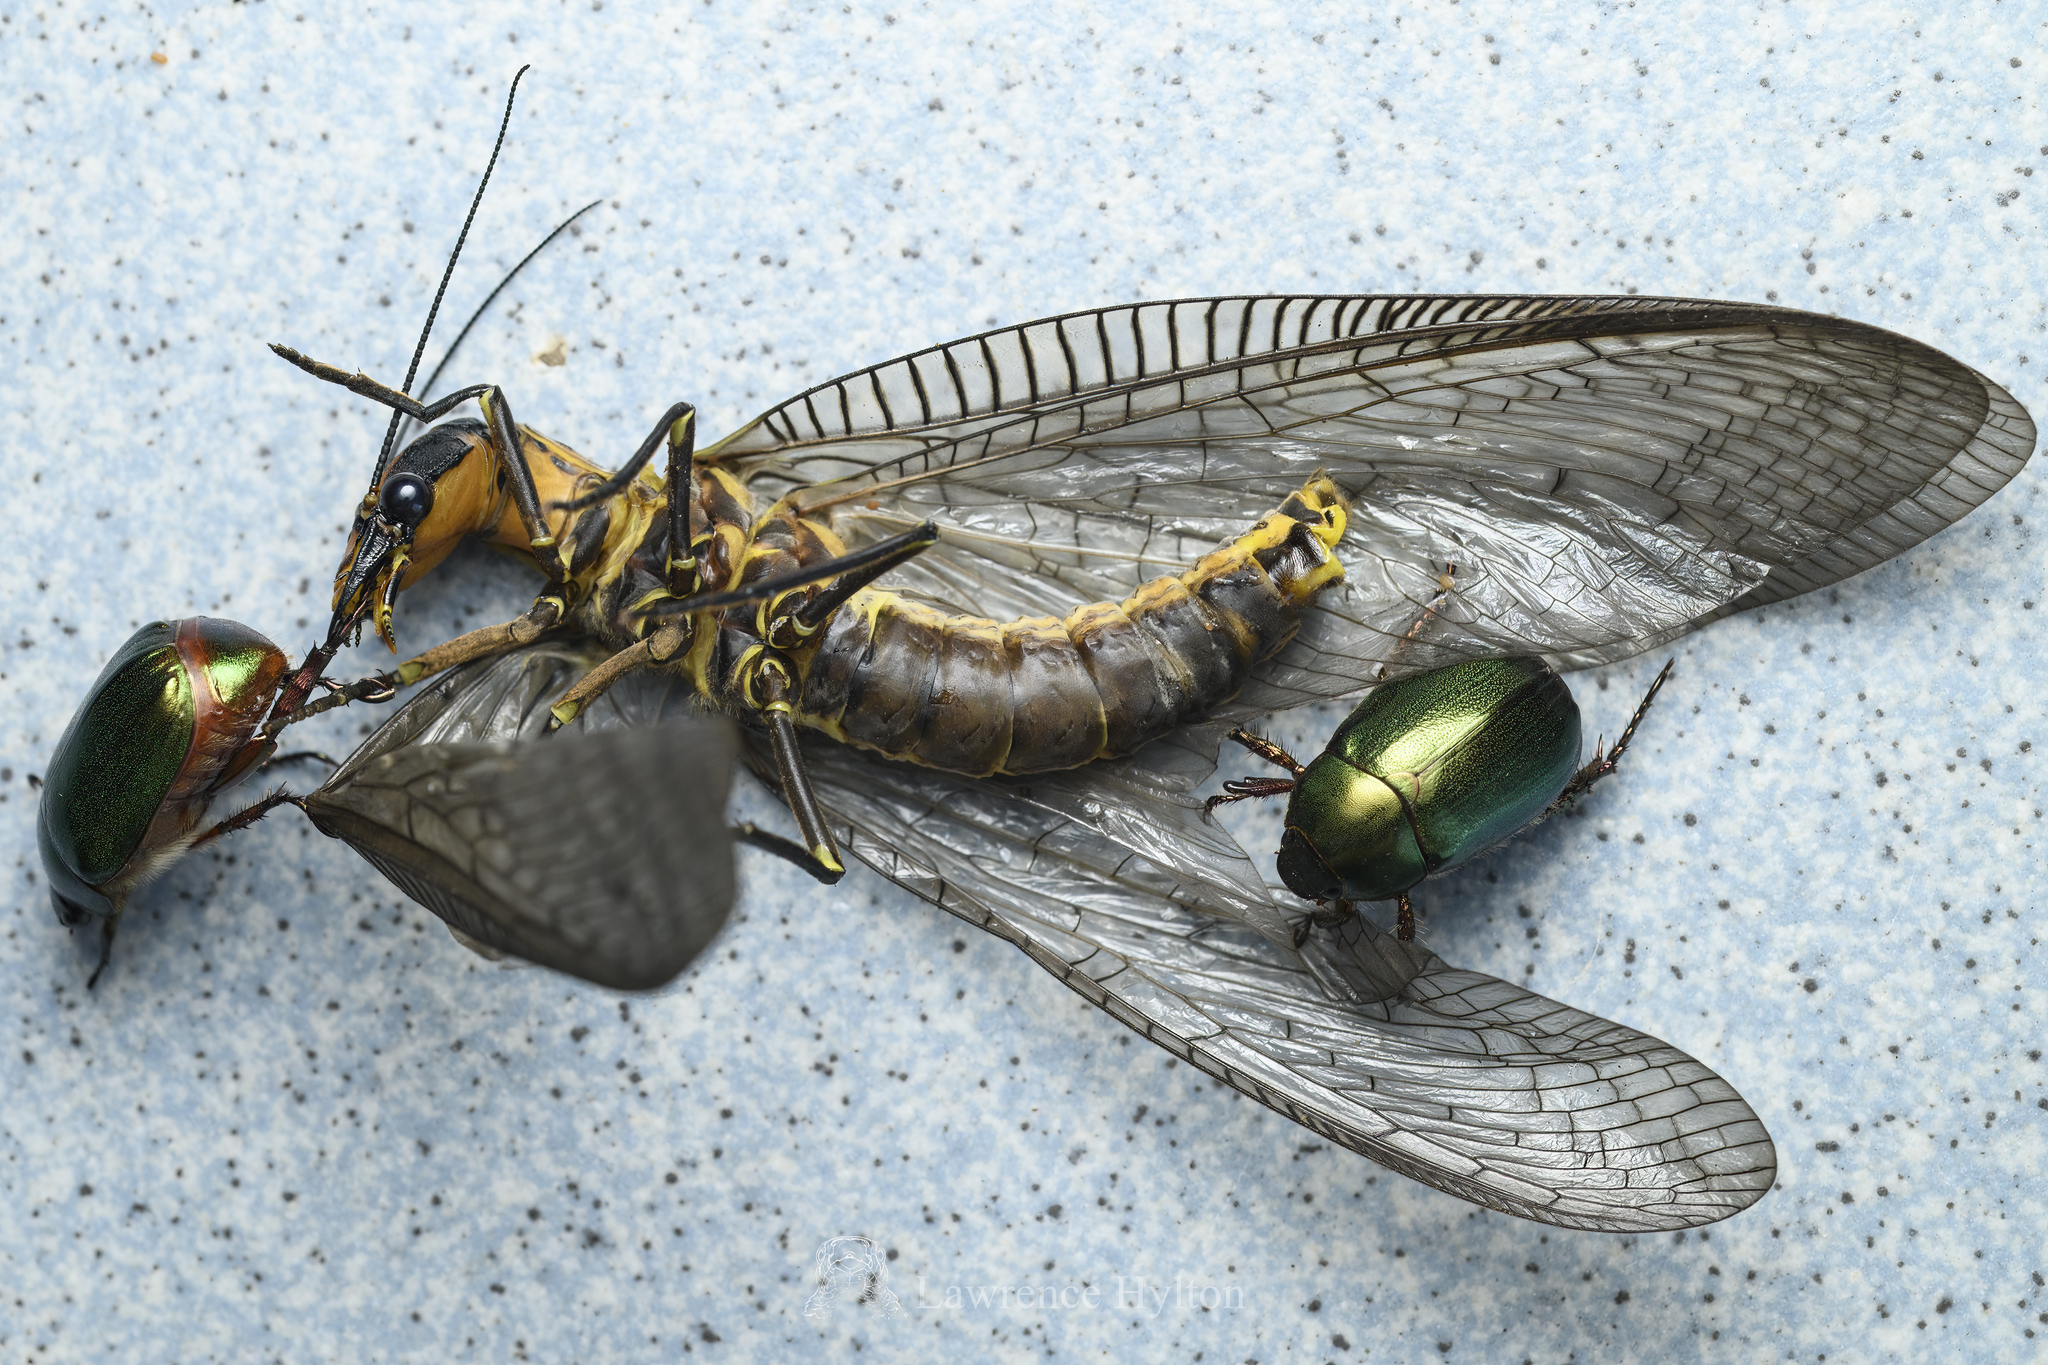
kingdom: Animalia
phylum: Arthropoda
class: Insecta
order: Megaloptera
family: Corydalidae
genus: Neoneuromus
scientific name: Neoneuromus ignobilis
